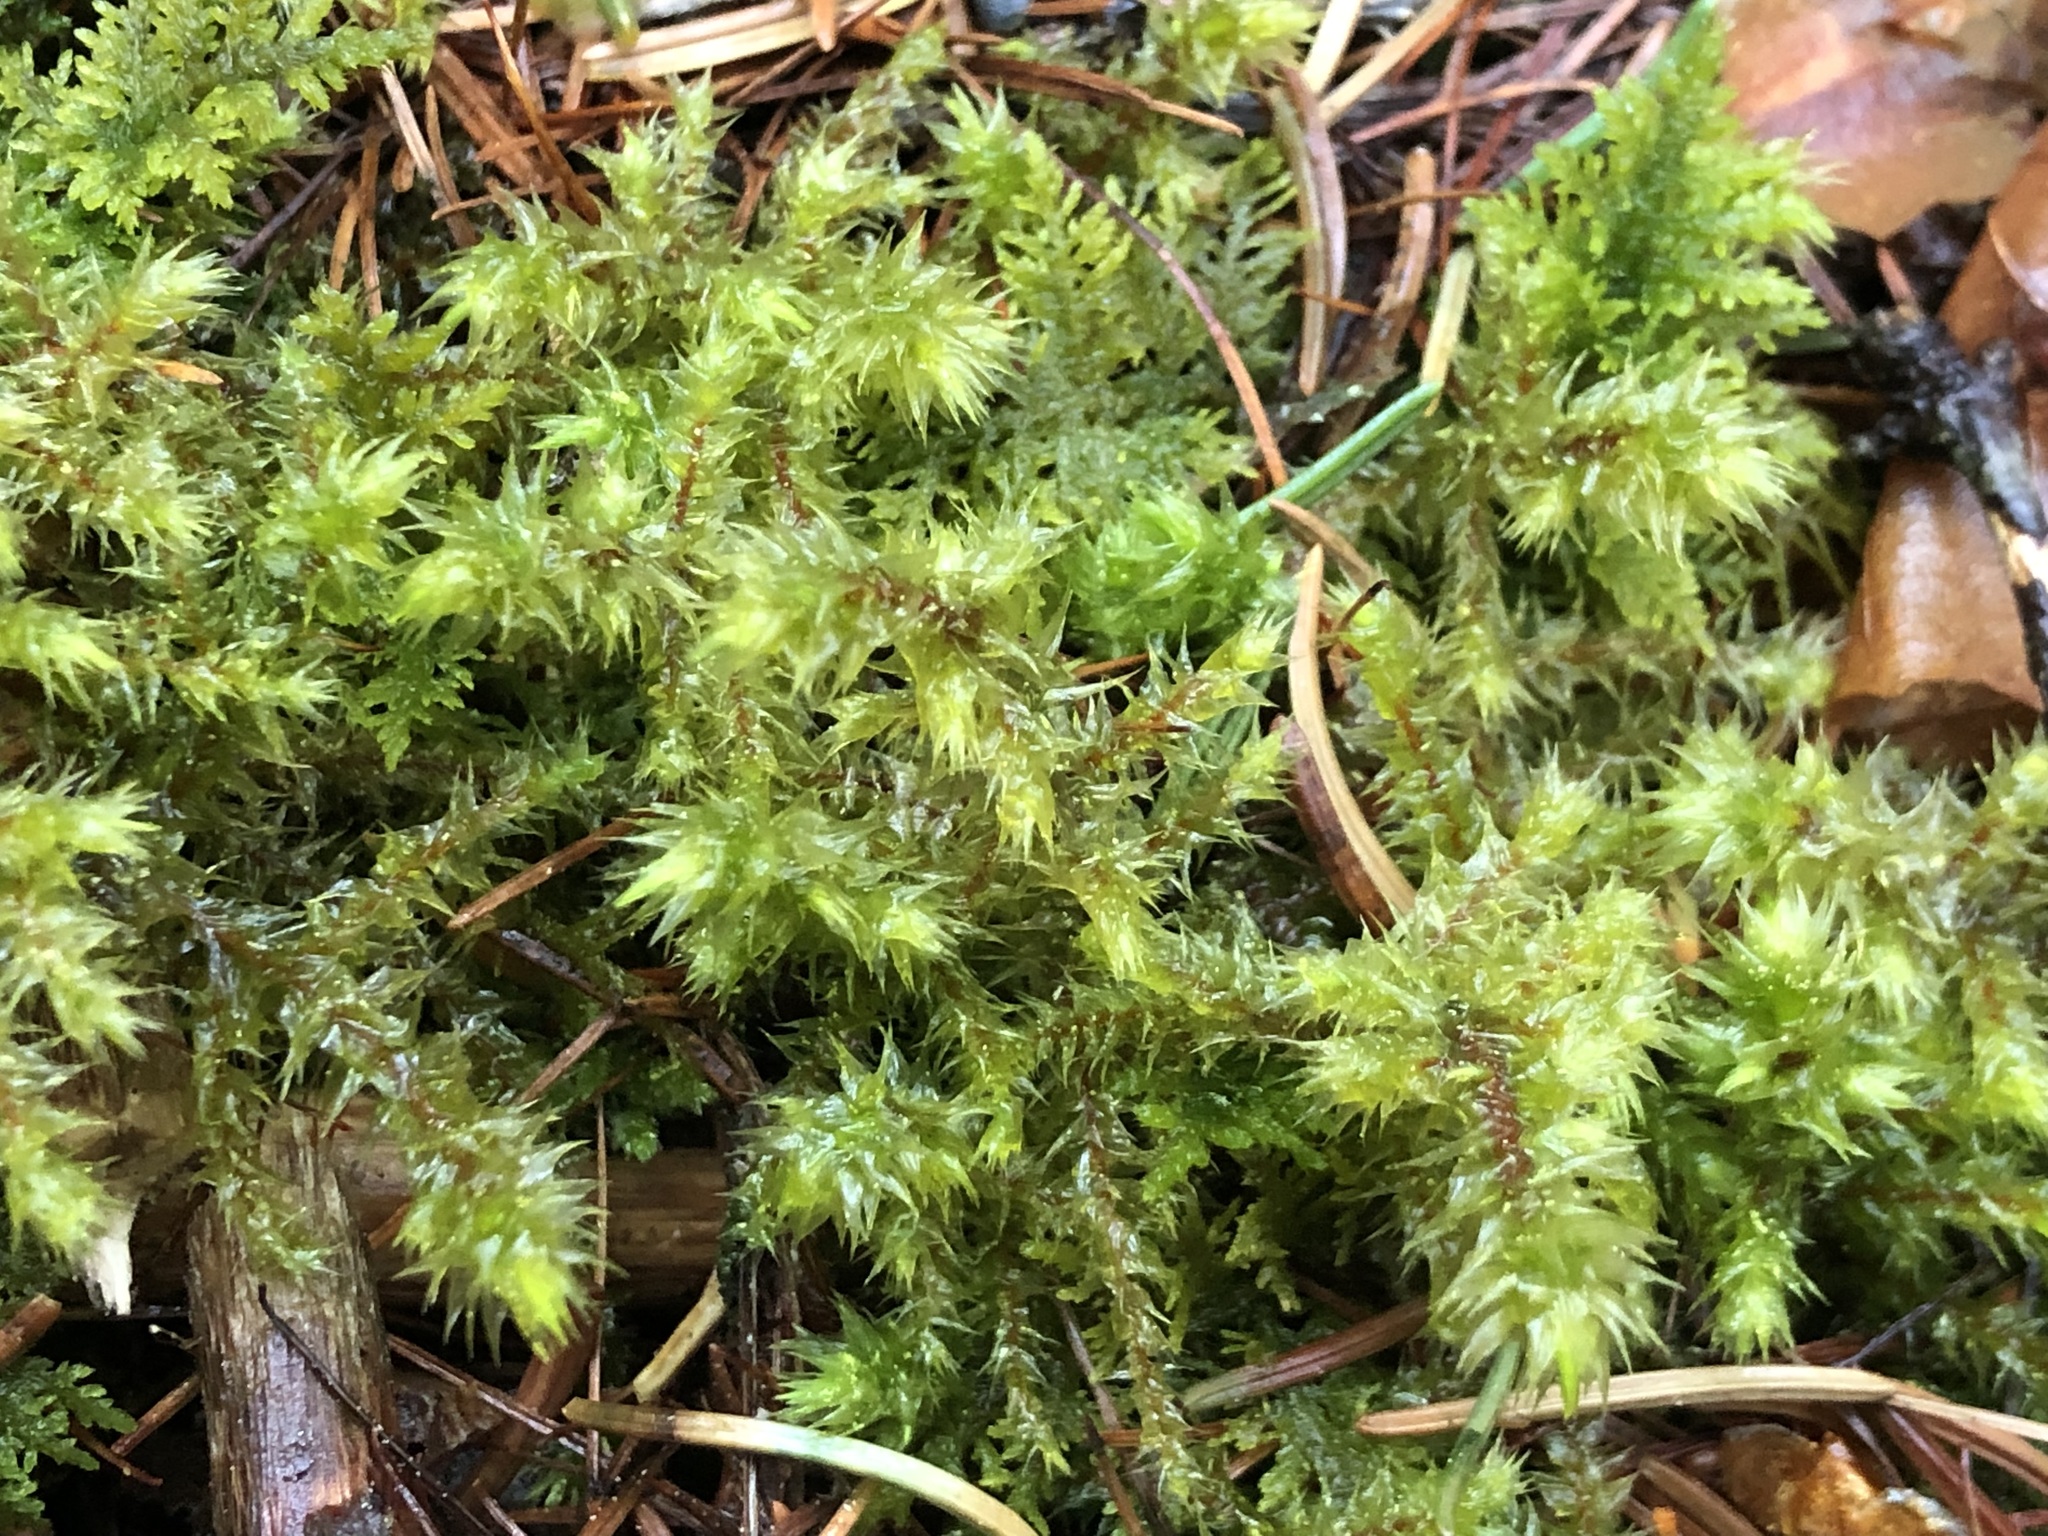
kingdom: Plantae
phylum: Bryophyta
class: Bryopsida
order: Hypnales
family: Hylocomiaceae
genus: Hylocomiadelphus
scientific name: Hylocomiadelphus triquetrus
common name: Rough goose neck moss
